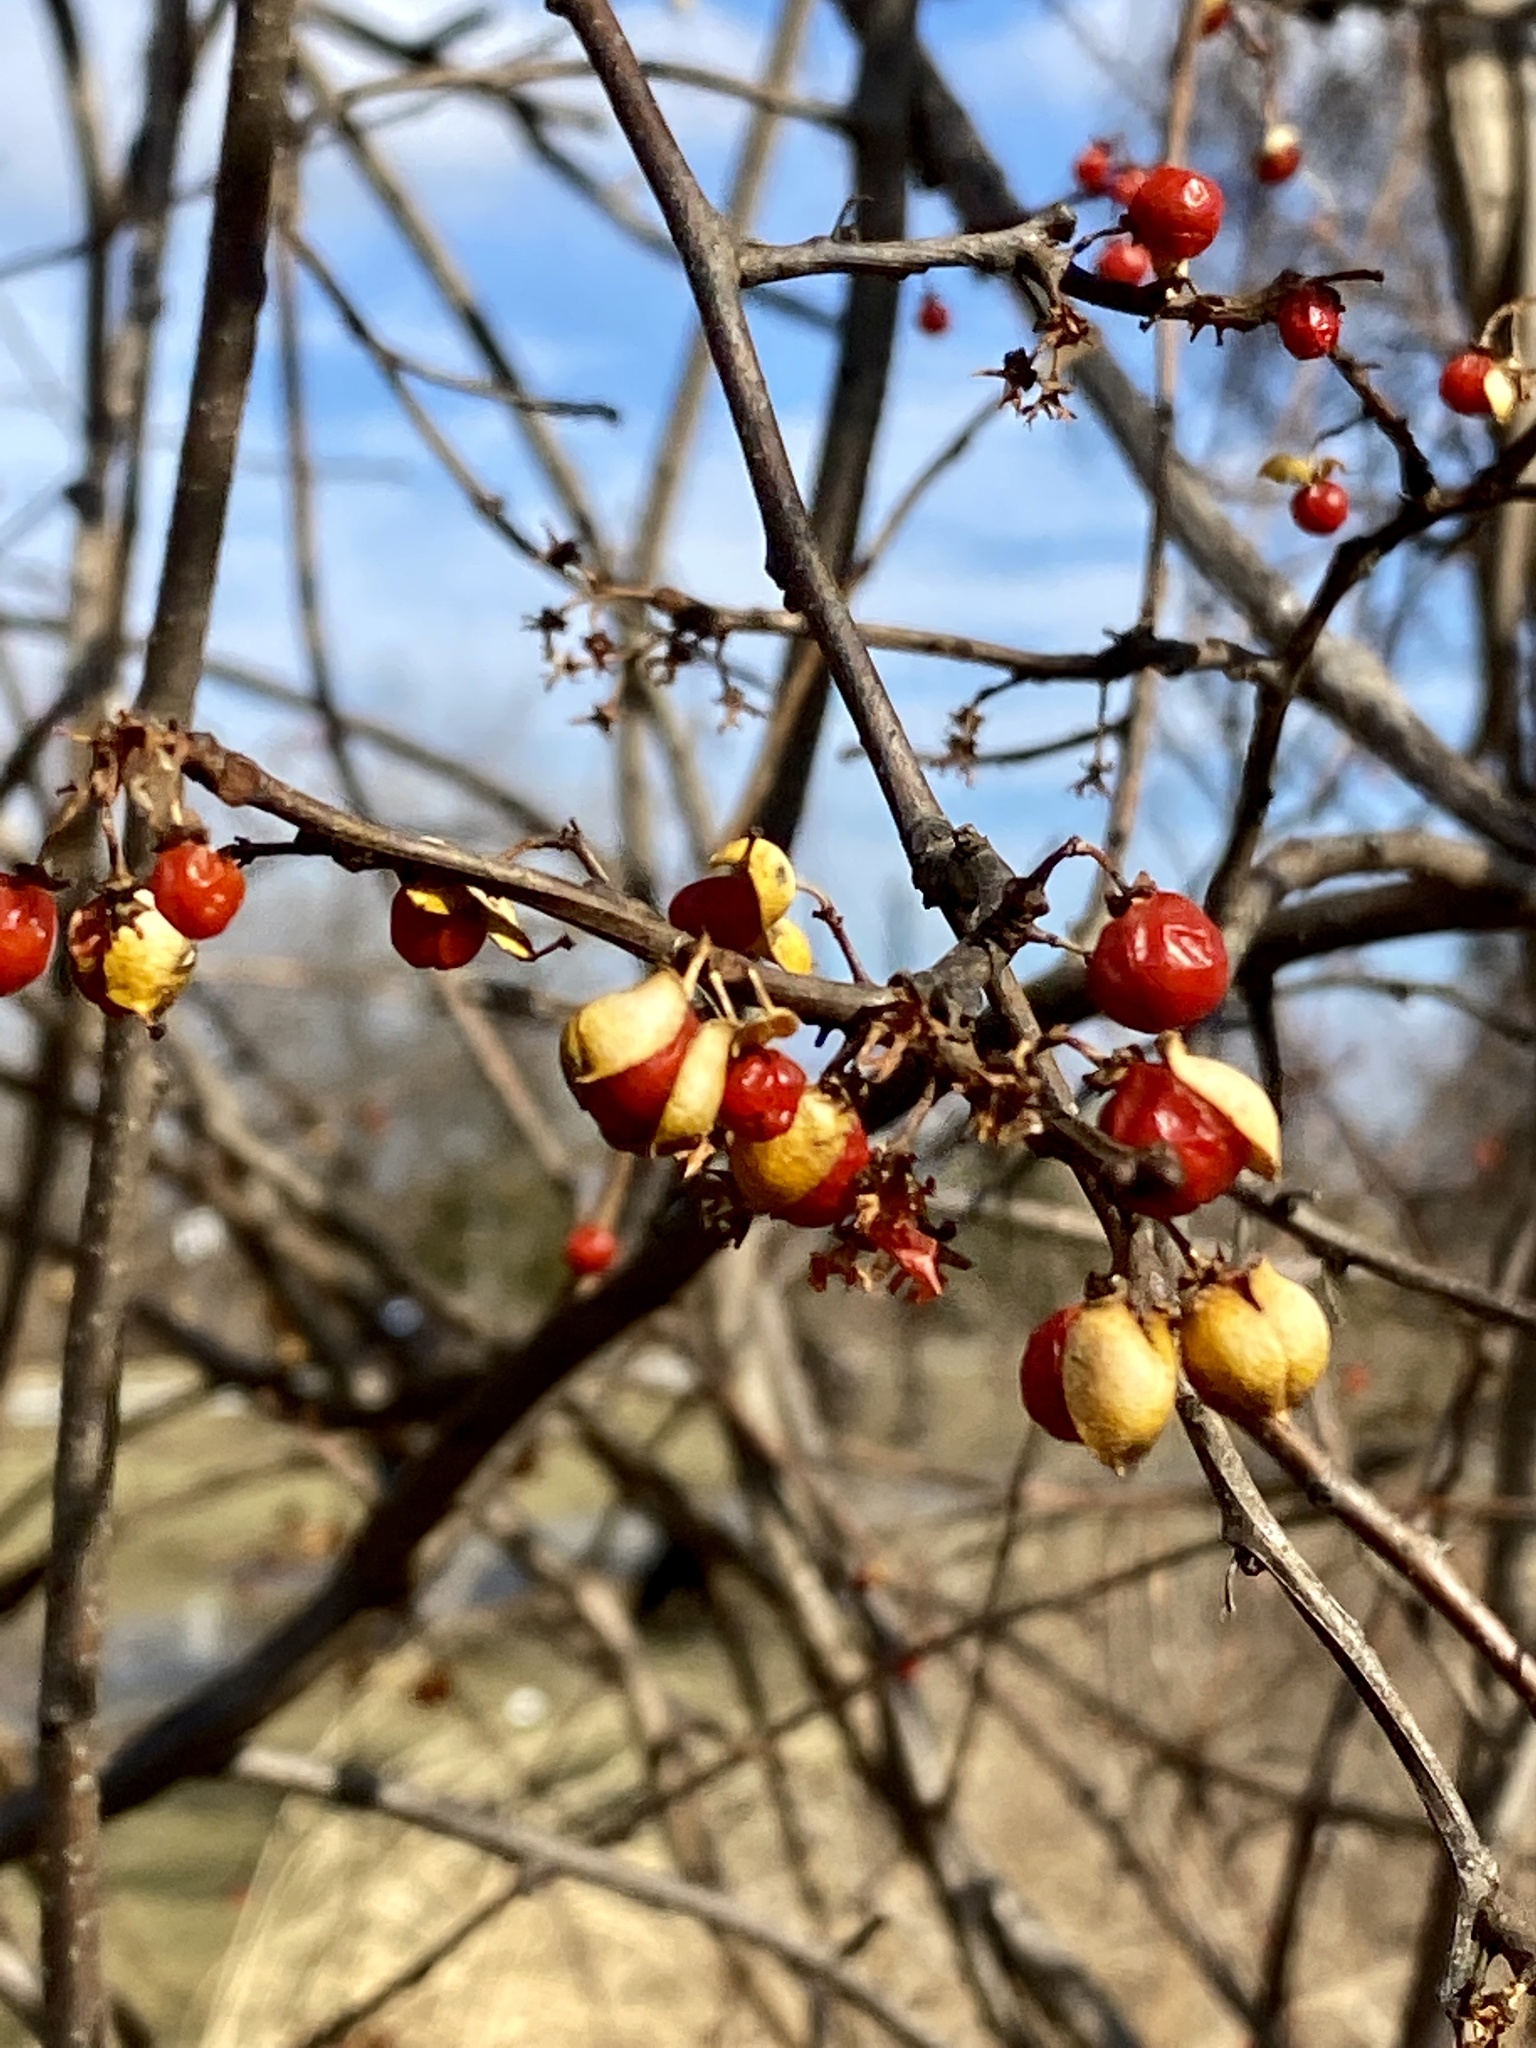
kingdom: Plantae
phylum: Tracheophyta
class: Magnoliopsida
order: Celastrales
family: Celastraceae
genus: Celastrus
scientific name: Celastrus orbiculatus
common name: Oriental bittersweet
